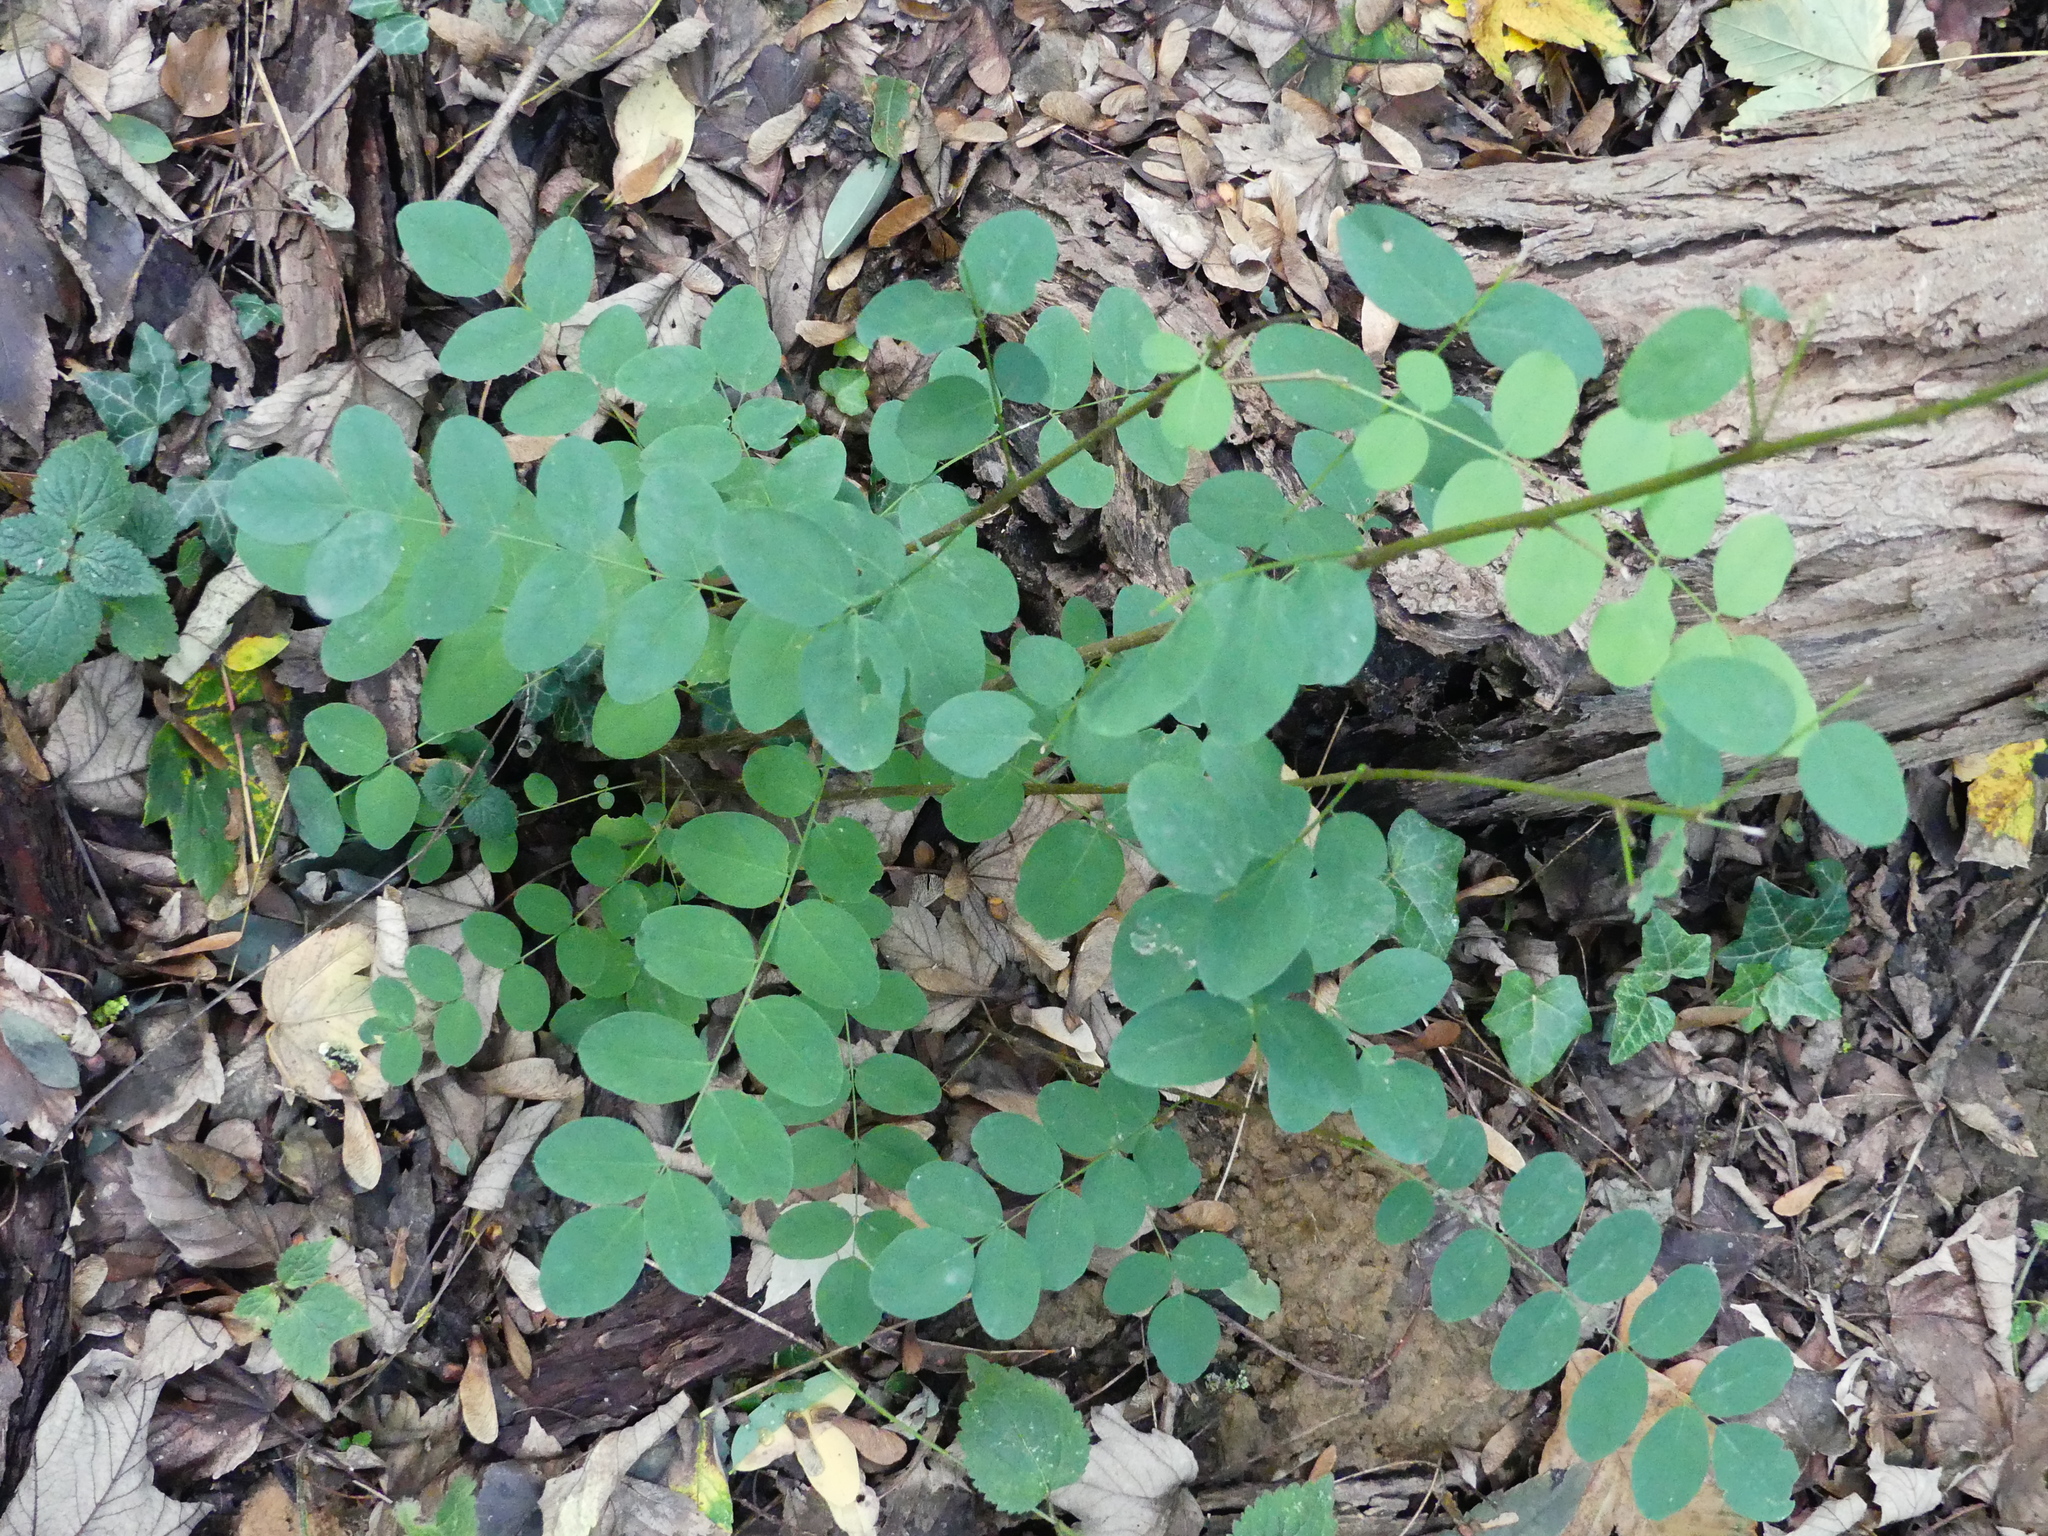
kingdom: Plantae
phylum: Tracheophyta
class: Magnoliopsida
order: Fabales
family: Fabaceae
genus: Robinia
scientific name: Robinia pseudoacacia
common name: Black locust
